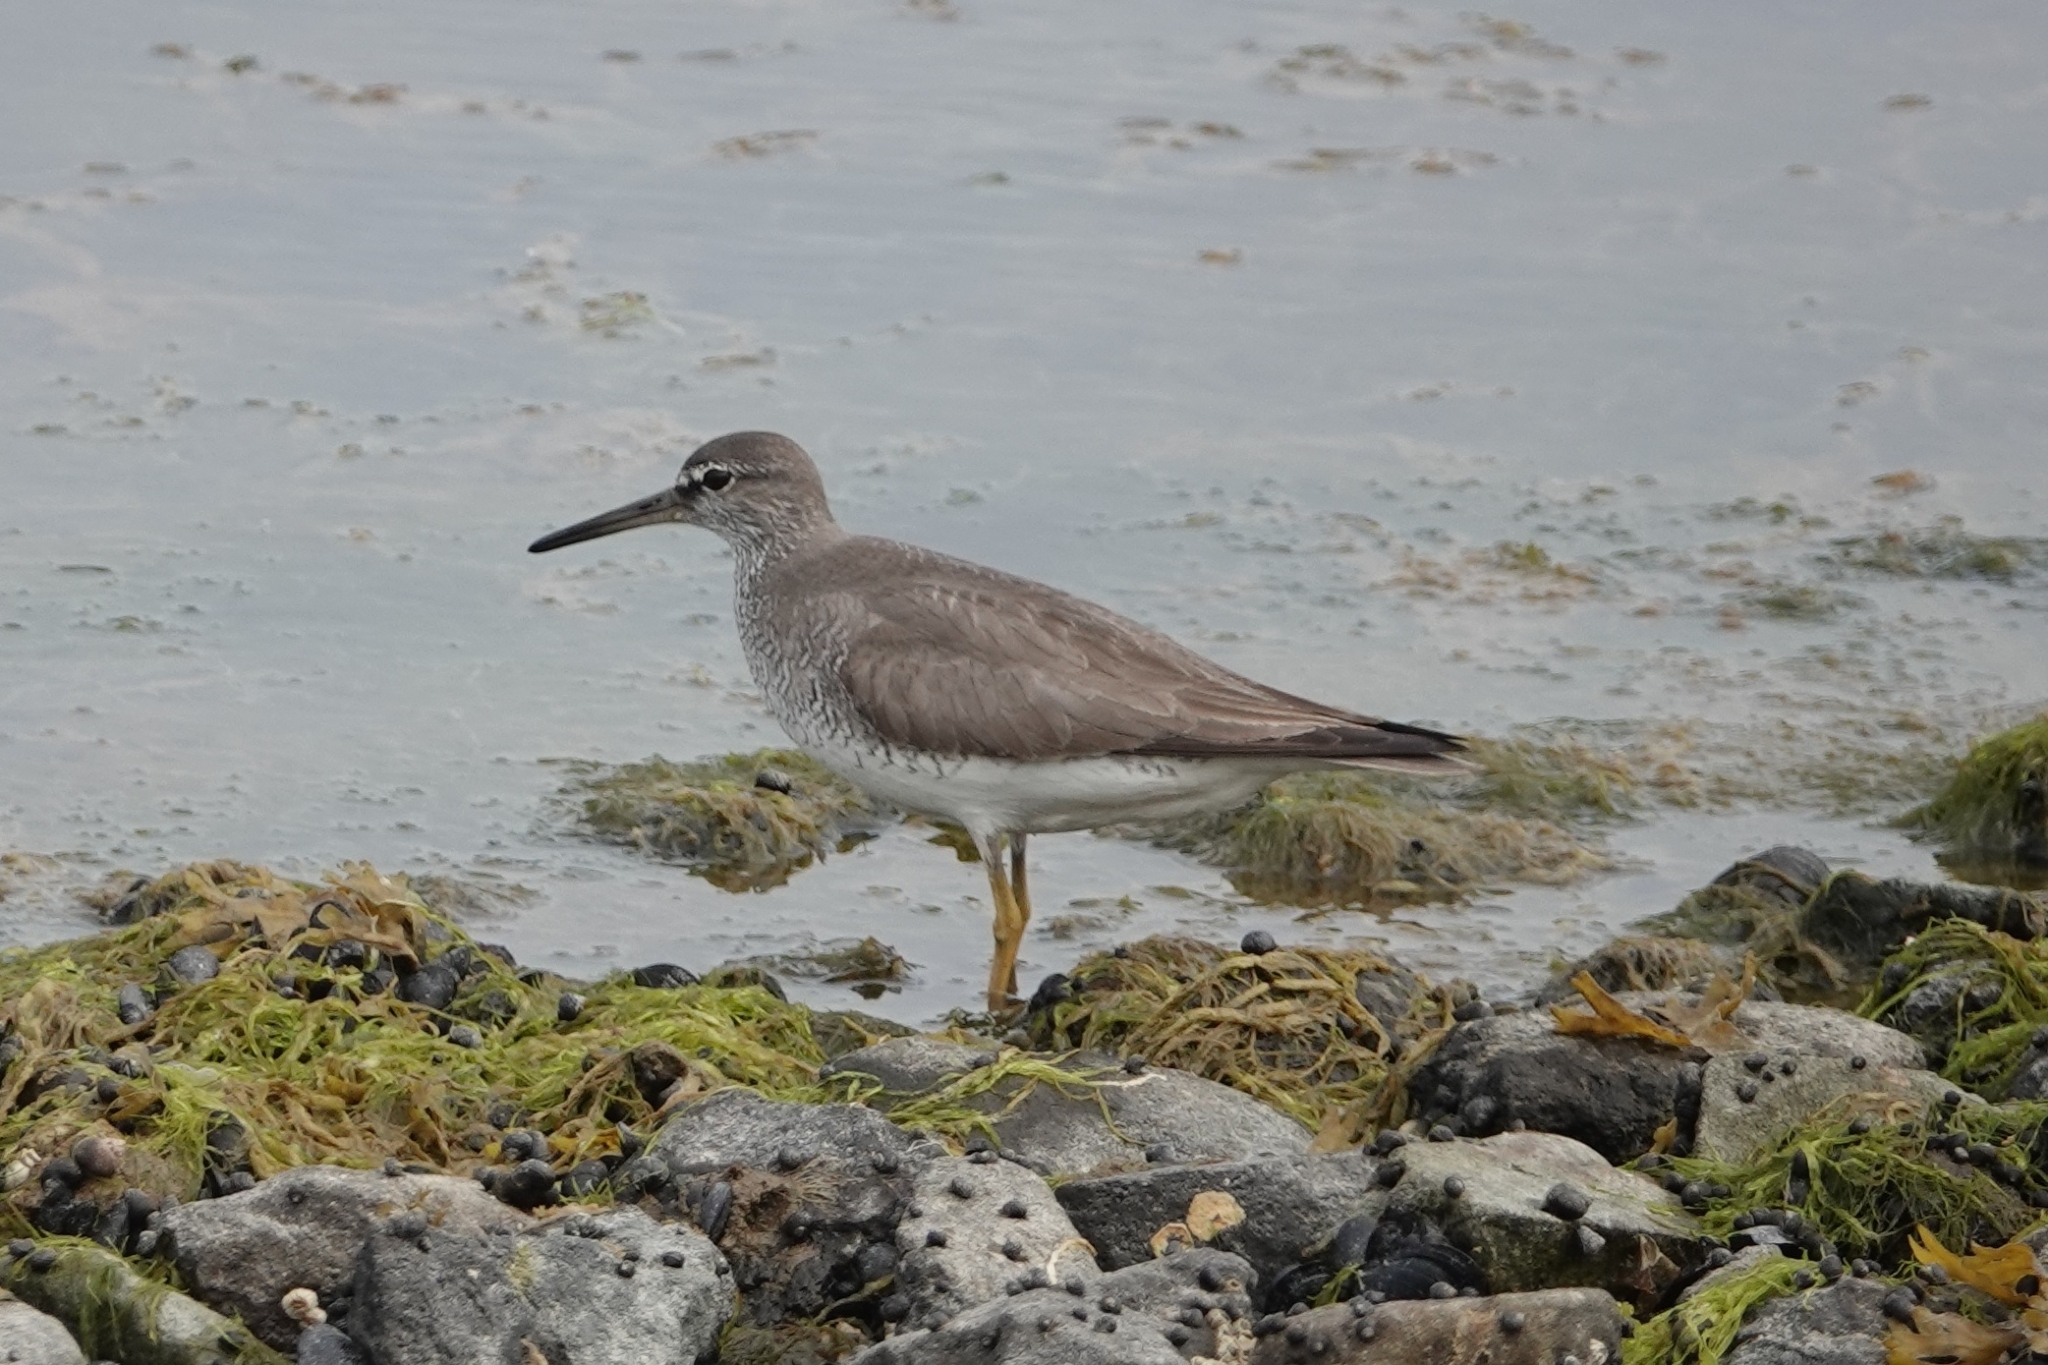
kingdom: Animalia
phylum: Chordata
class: Aves
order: Charadriiformes
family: Scolopacidae
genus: Tringa
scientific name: Tringa brevipes
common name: Grey-tailed tattler
